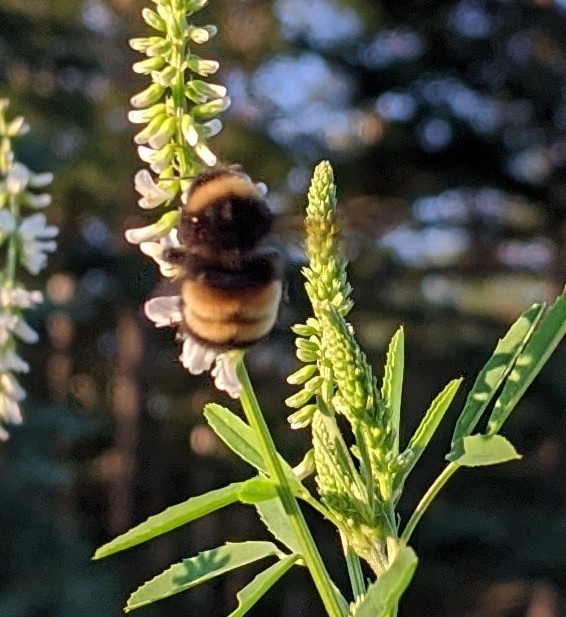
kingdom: Animalia
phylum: Arthropoda
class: Insecta
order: Hymenoptera
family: Apidae
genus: Bombus
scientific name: Bombus terricola
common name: Yellow-banded bumble bee
